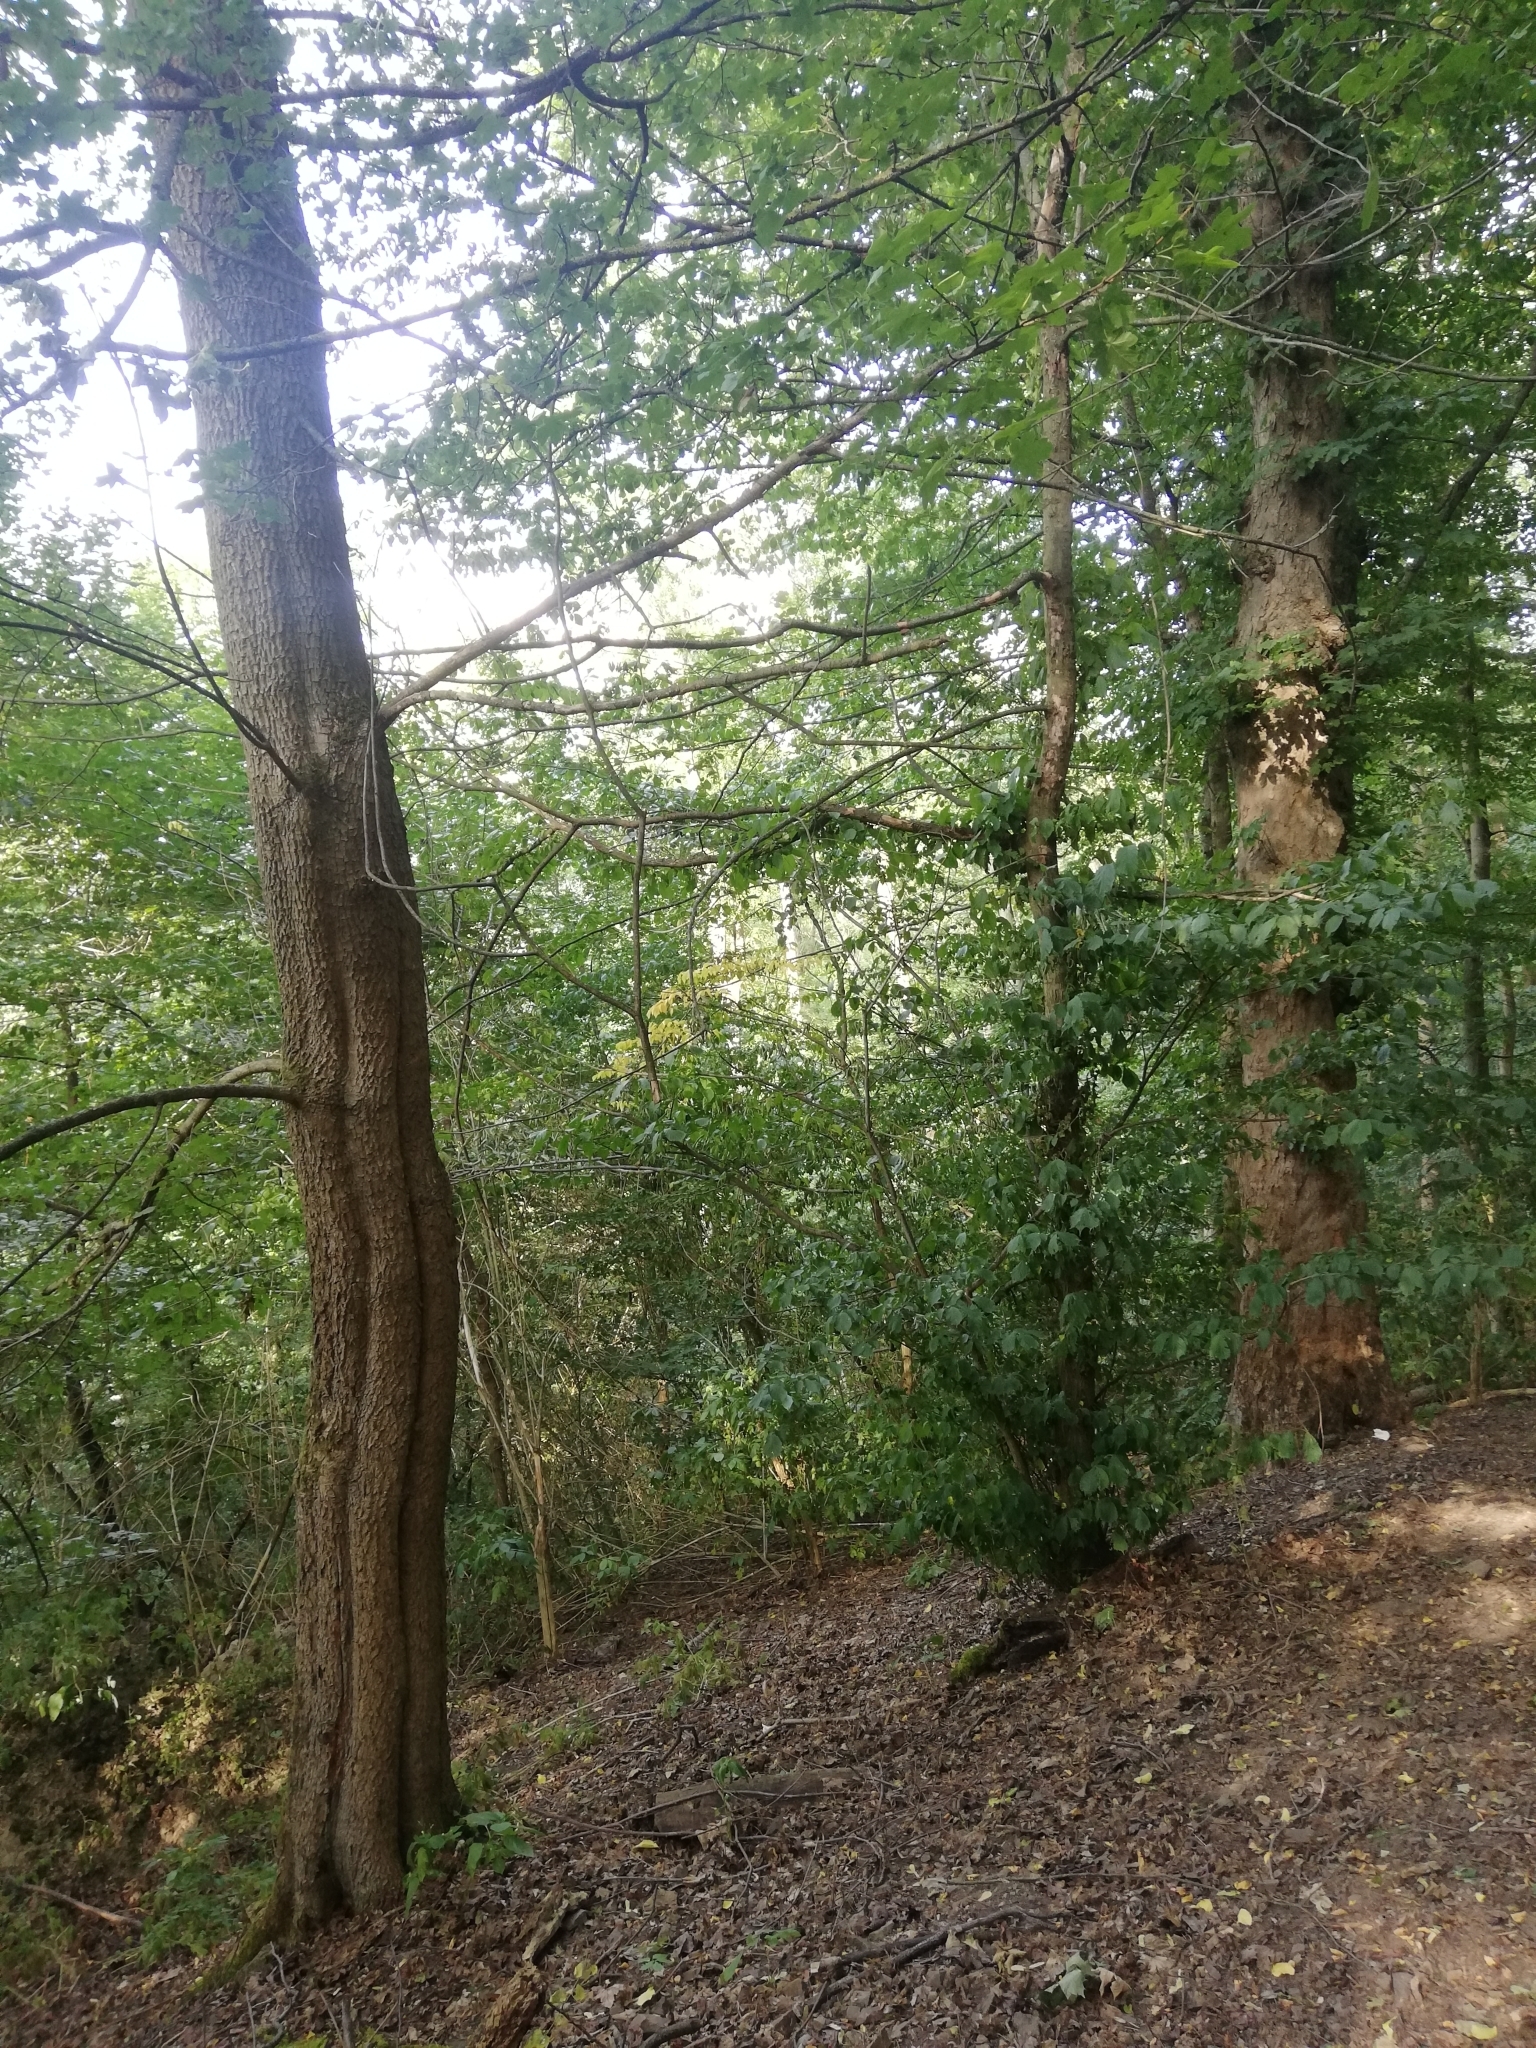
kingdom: Plantae
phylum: Tracheophyta
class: Magnoliopsida
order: Sapindales
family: Sapindaceae
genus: Acer
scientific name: Acer campestre
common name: Field maple
